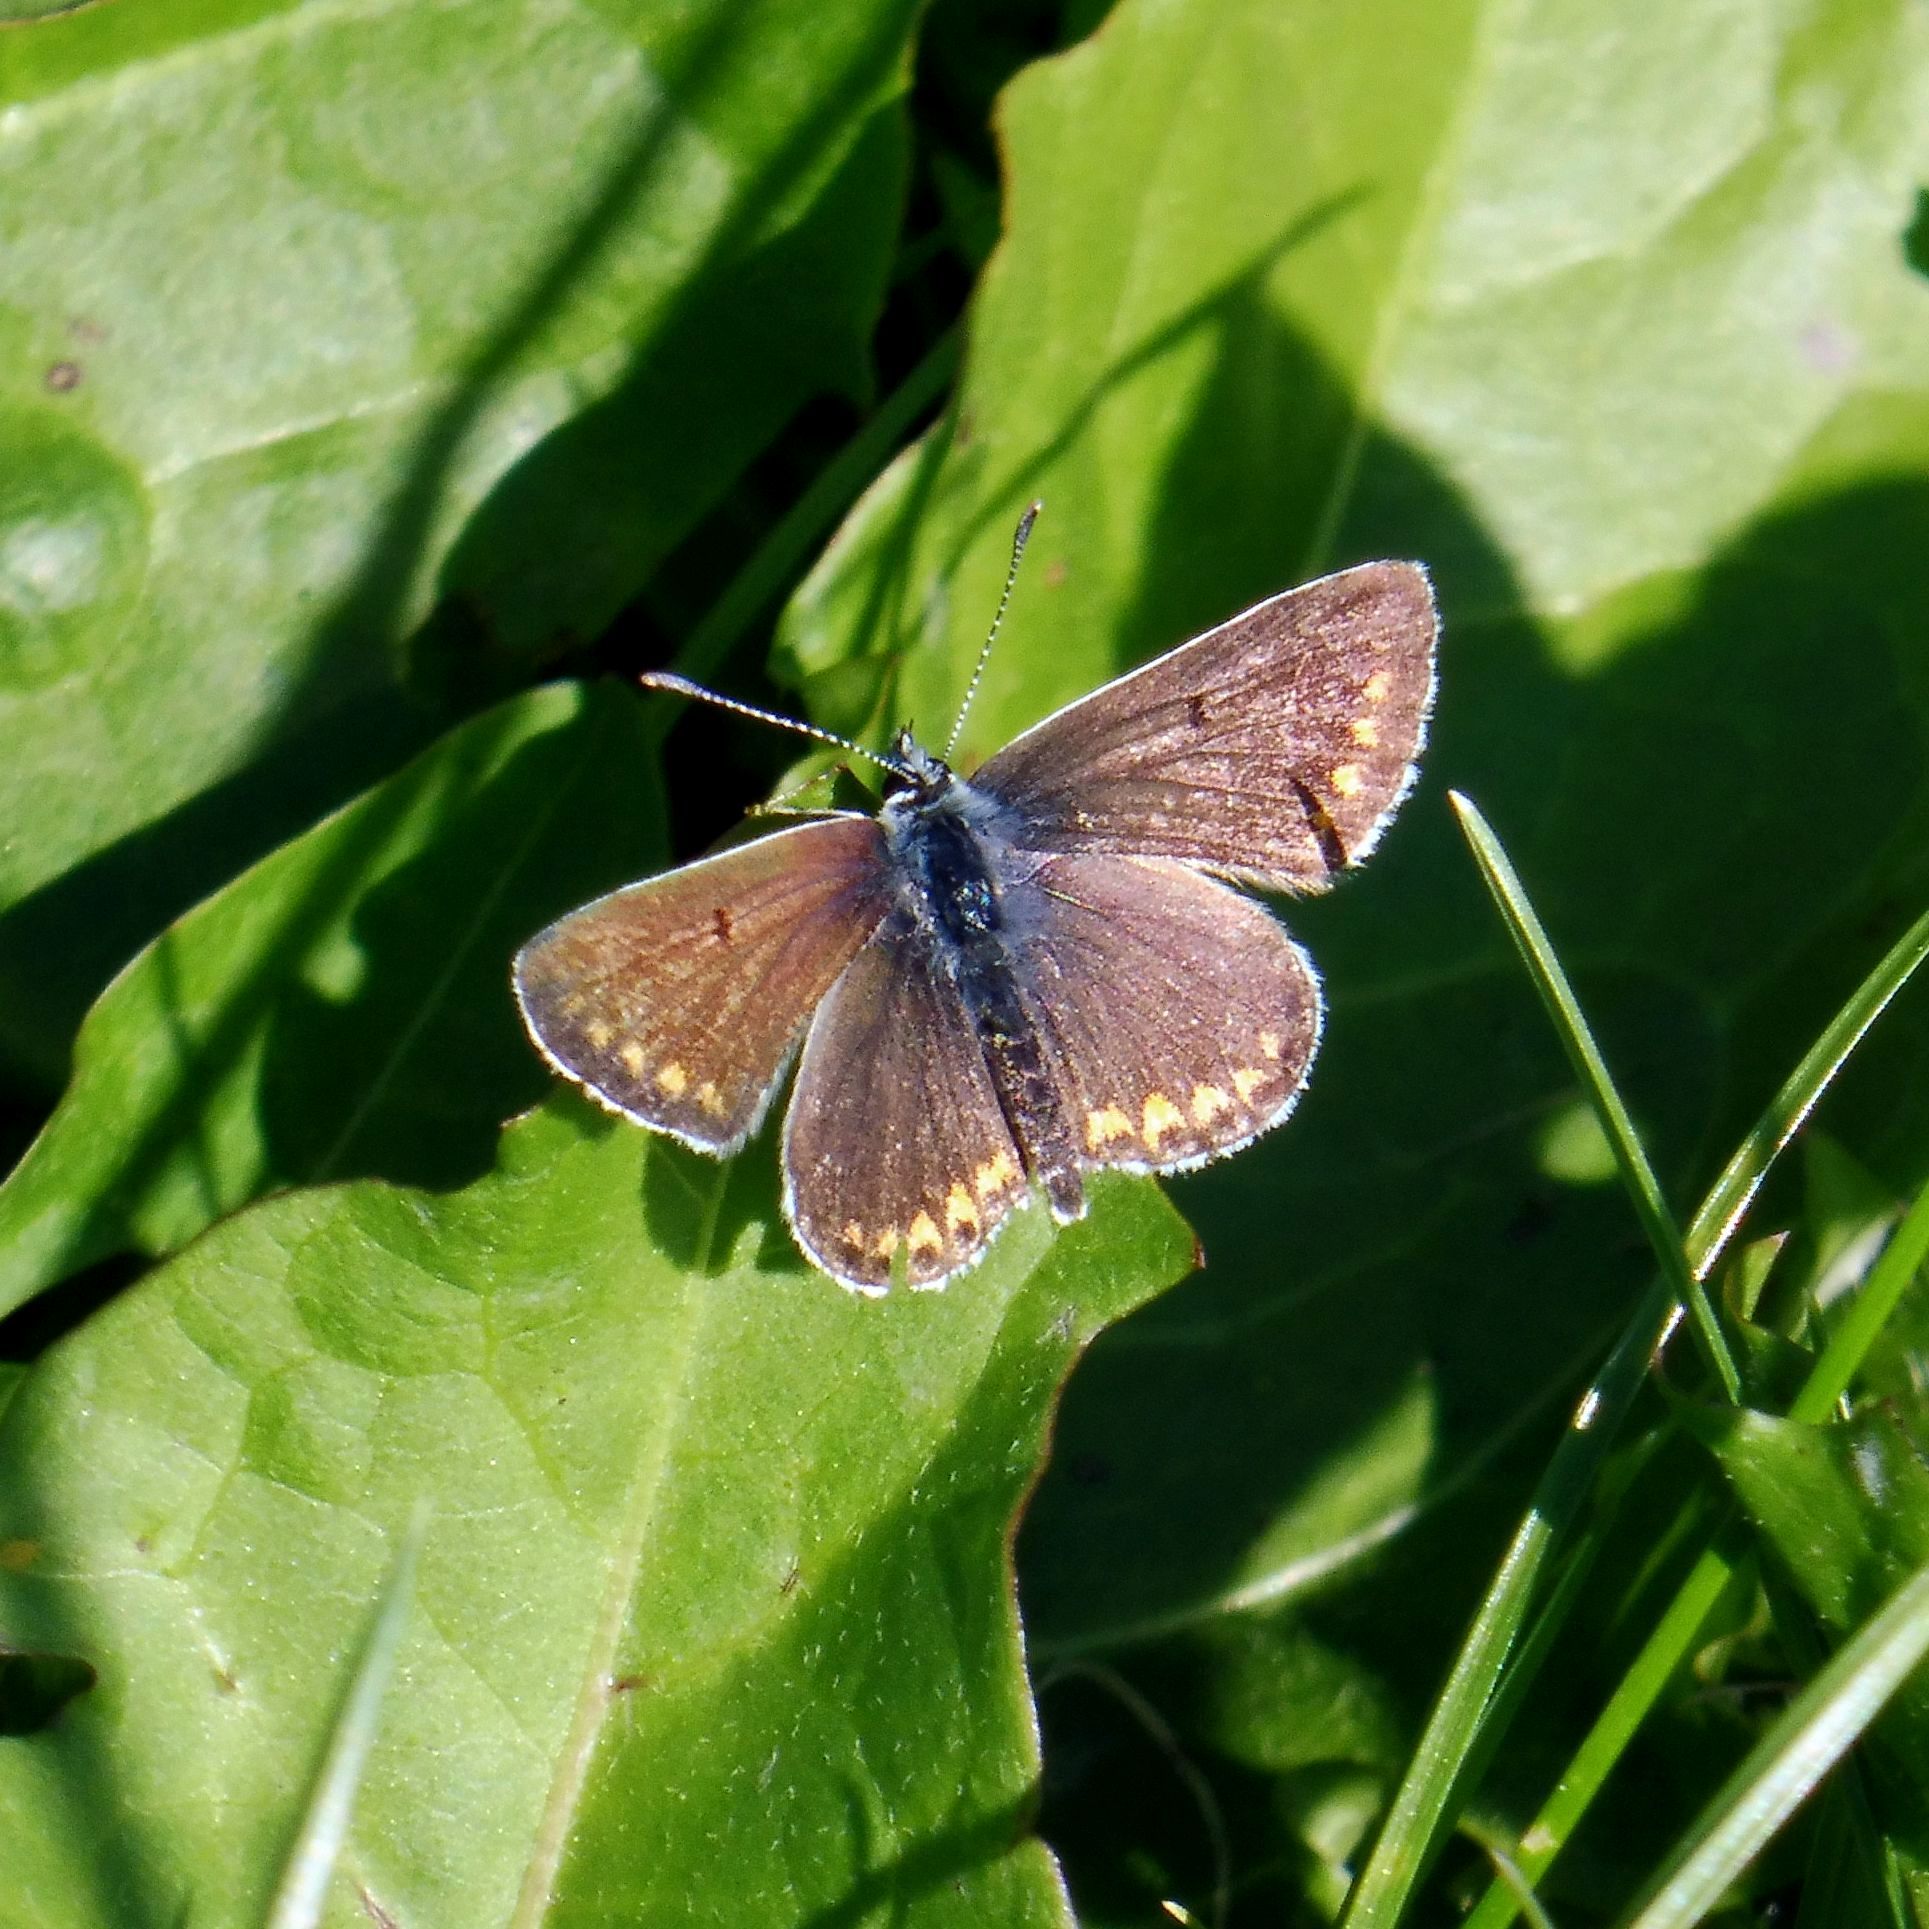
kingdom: Animalia
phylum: Arthropoda
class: Insecta
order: Lepidoptera
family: Lycaenidae
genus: Aricia
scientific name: Aricia agestis
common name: Brown argus
